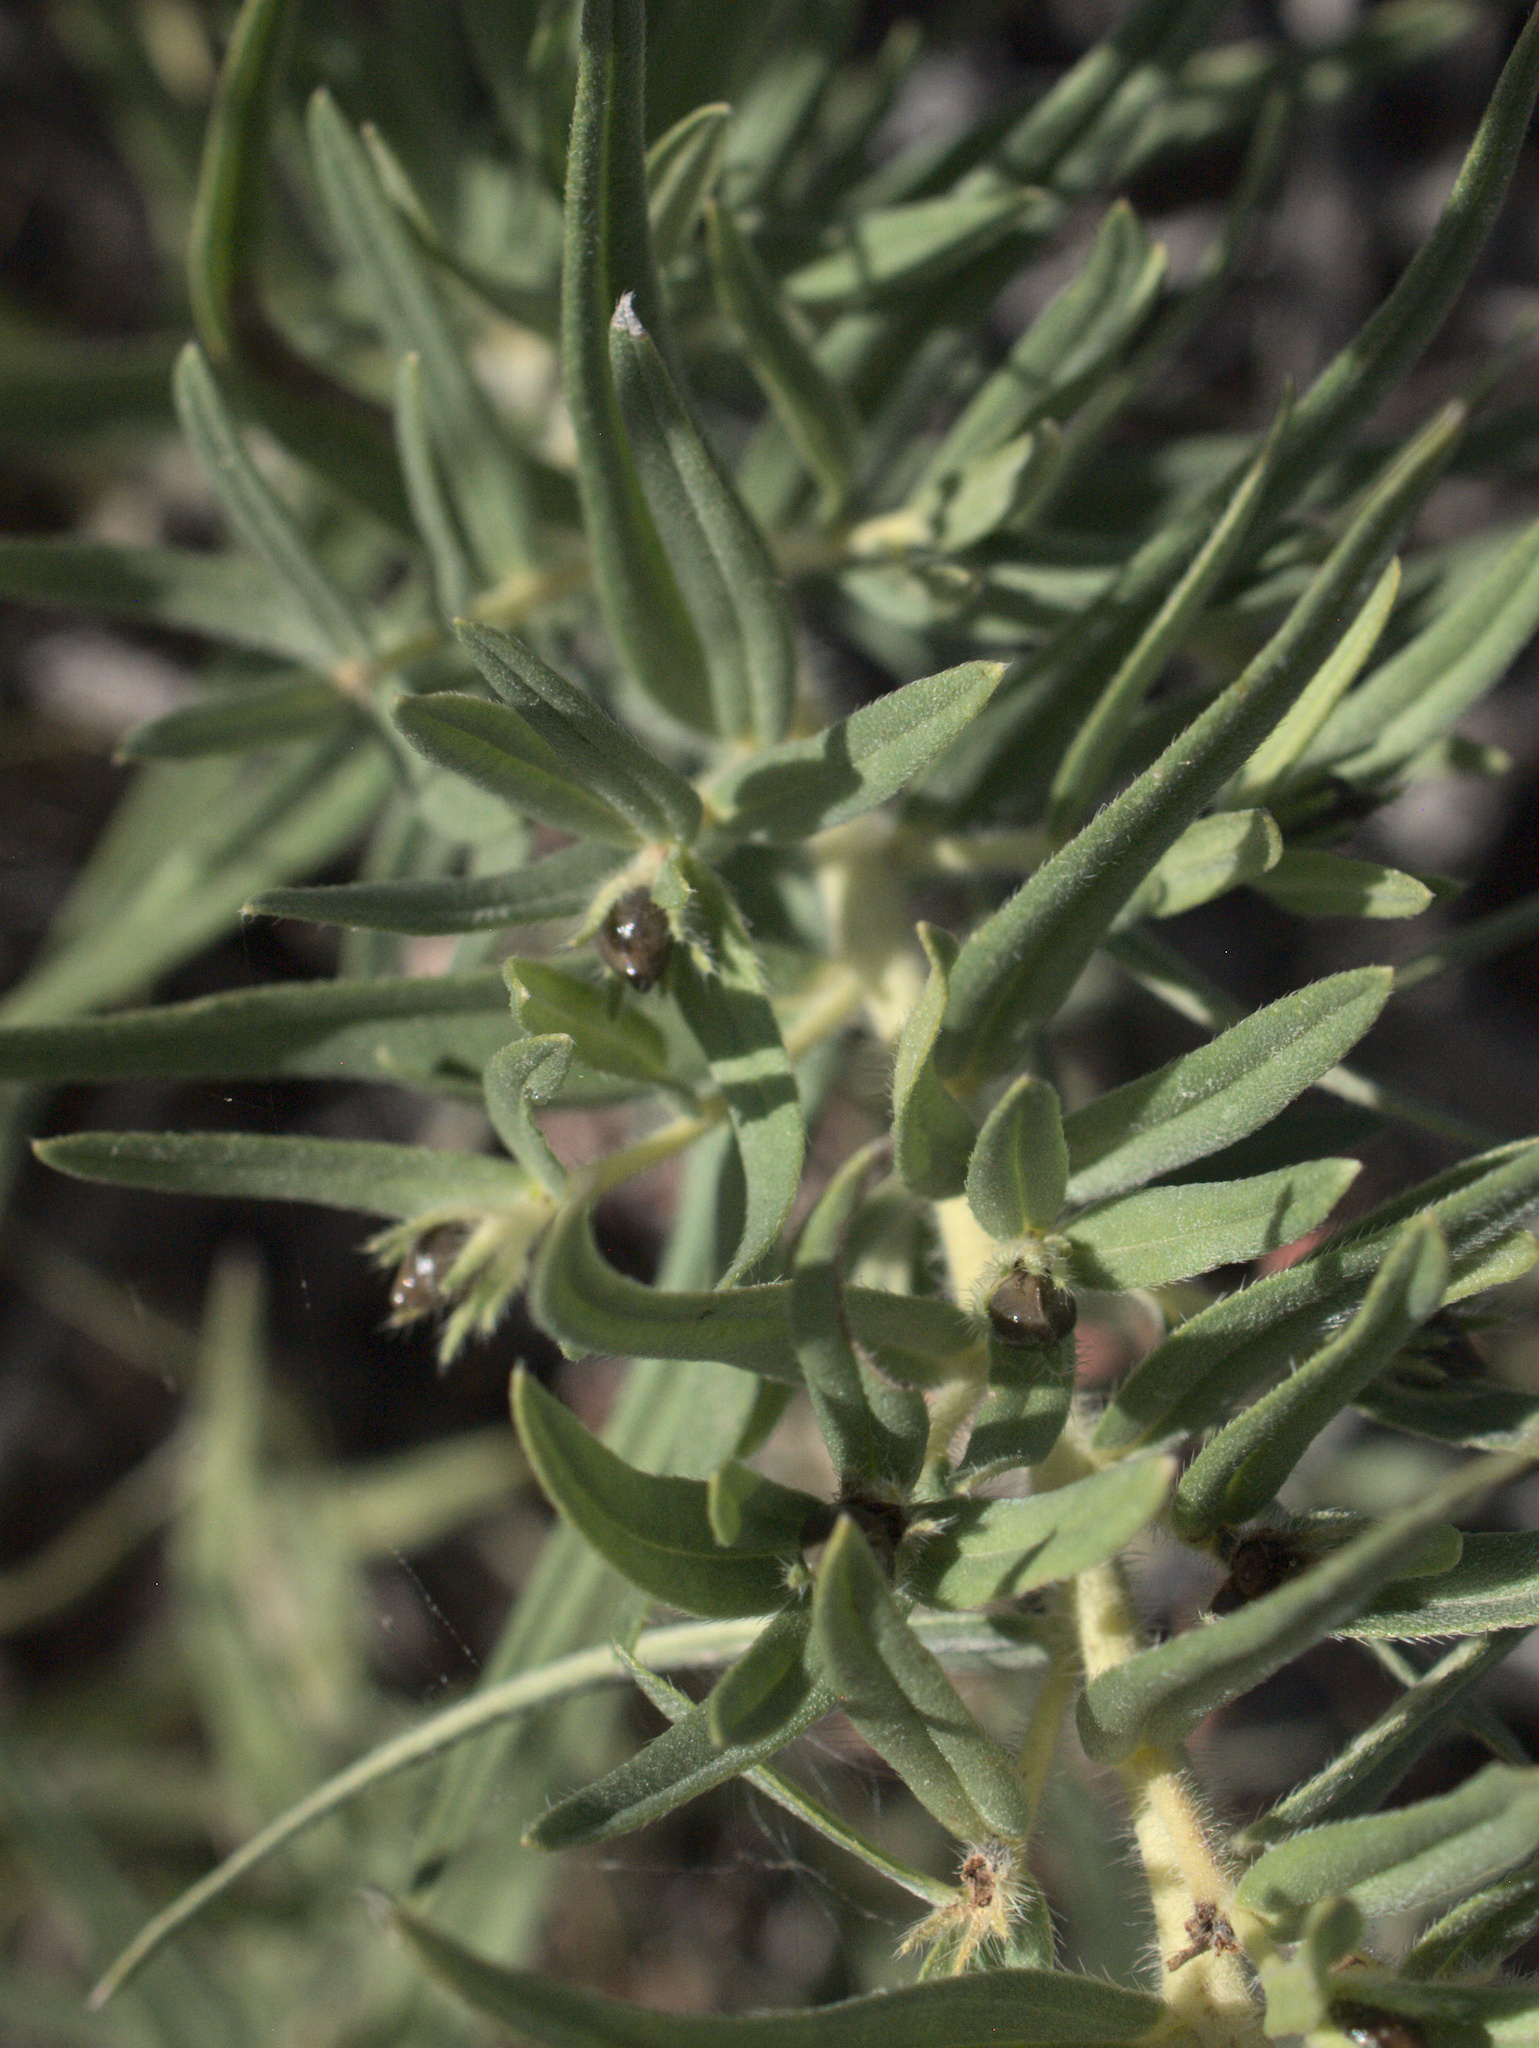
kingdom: Plantae
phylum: Tracheophyta
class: Magnoliopsida
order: Boraginales
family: Boraginaceae
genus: Lithospermum
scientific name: Lithospermum ruderale
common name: Western gromwell
